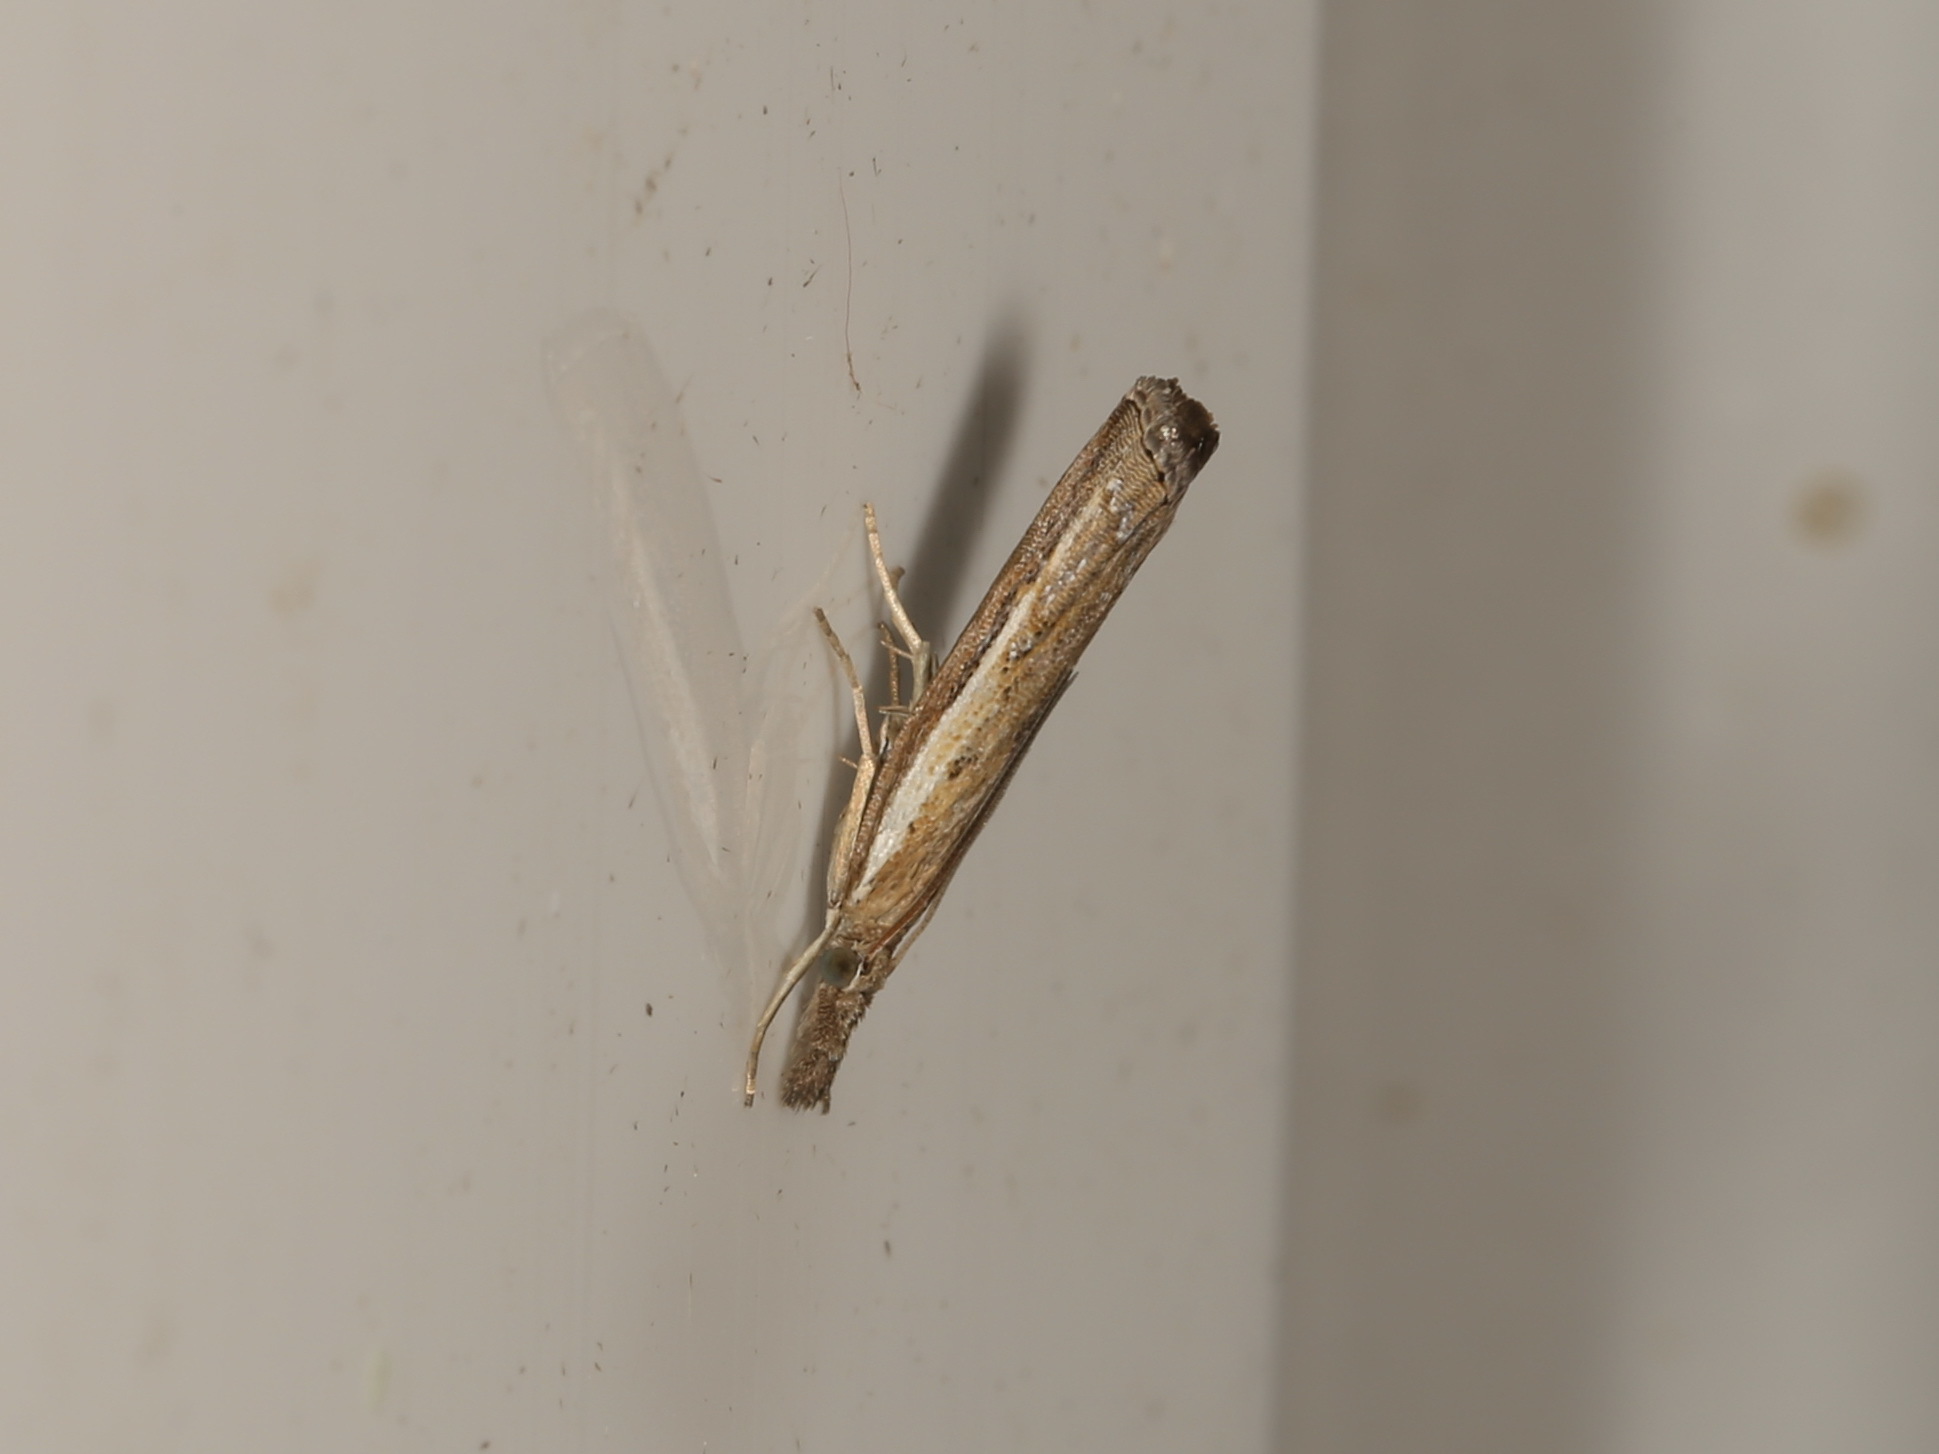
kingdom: Animalia
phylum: Arthropoda
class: Insecta
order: Lepidoptera
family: Crambidae
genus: Ptochostola
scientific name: Ptochostola microphaeellus
